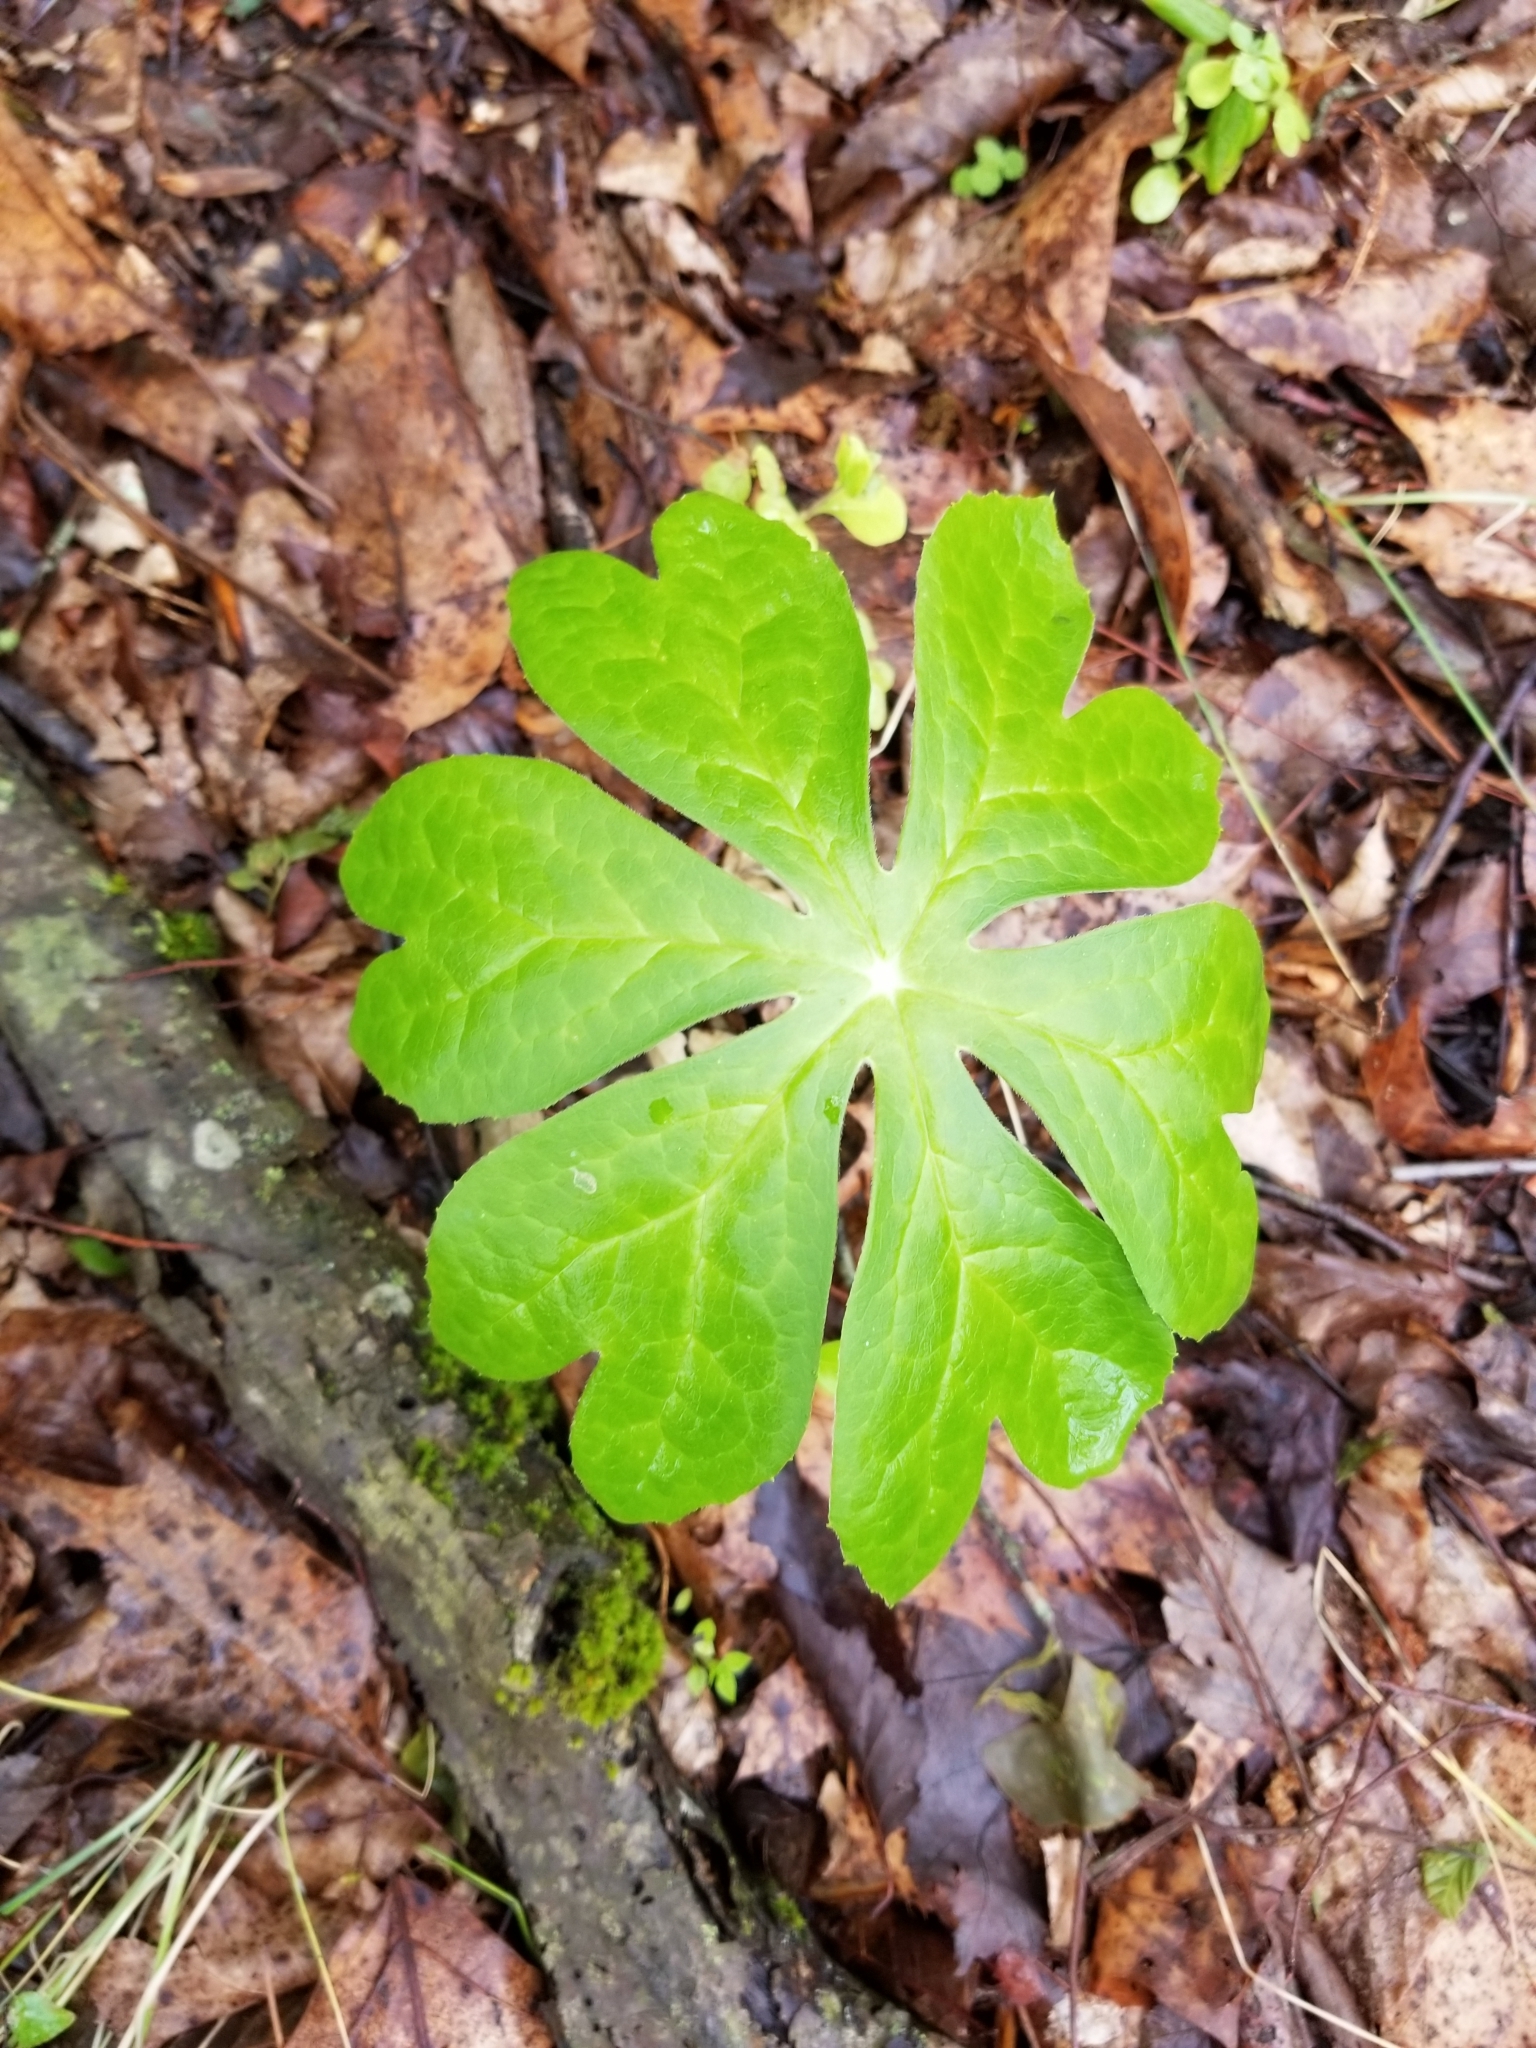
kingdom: Plantae
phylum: Tracheophyta
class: Magnoliopsida
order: Ranunculales
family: Berberidaceae
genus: Podophyllum
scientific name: Podophyllum peltatum
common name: Wild mandrake
